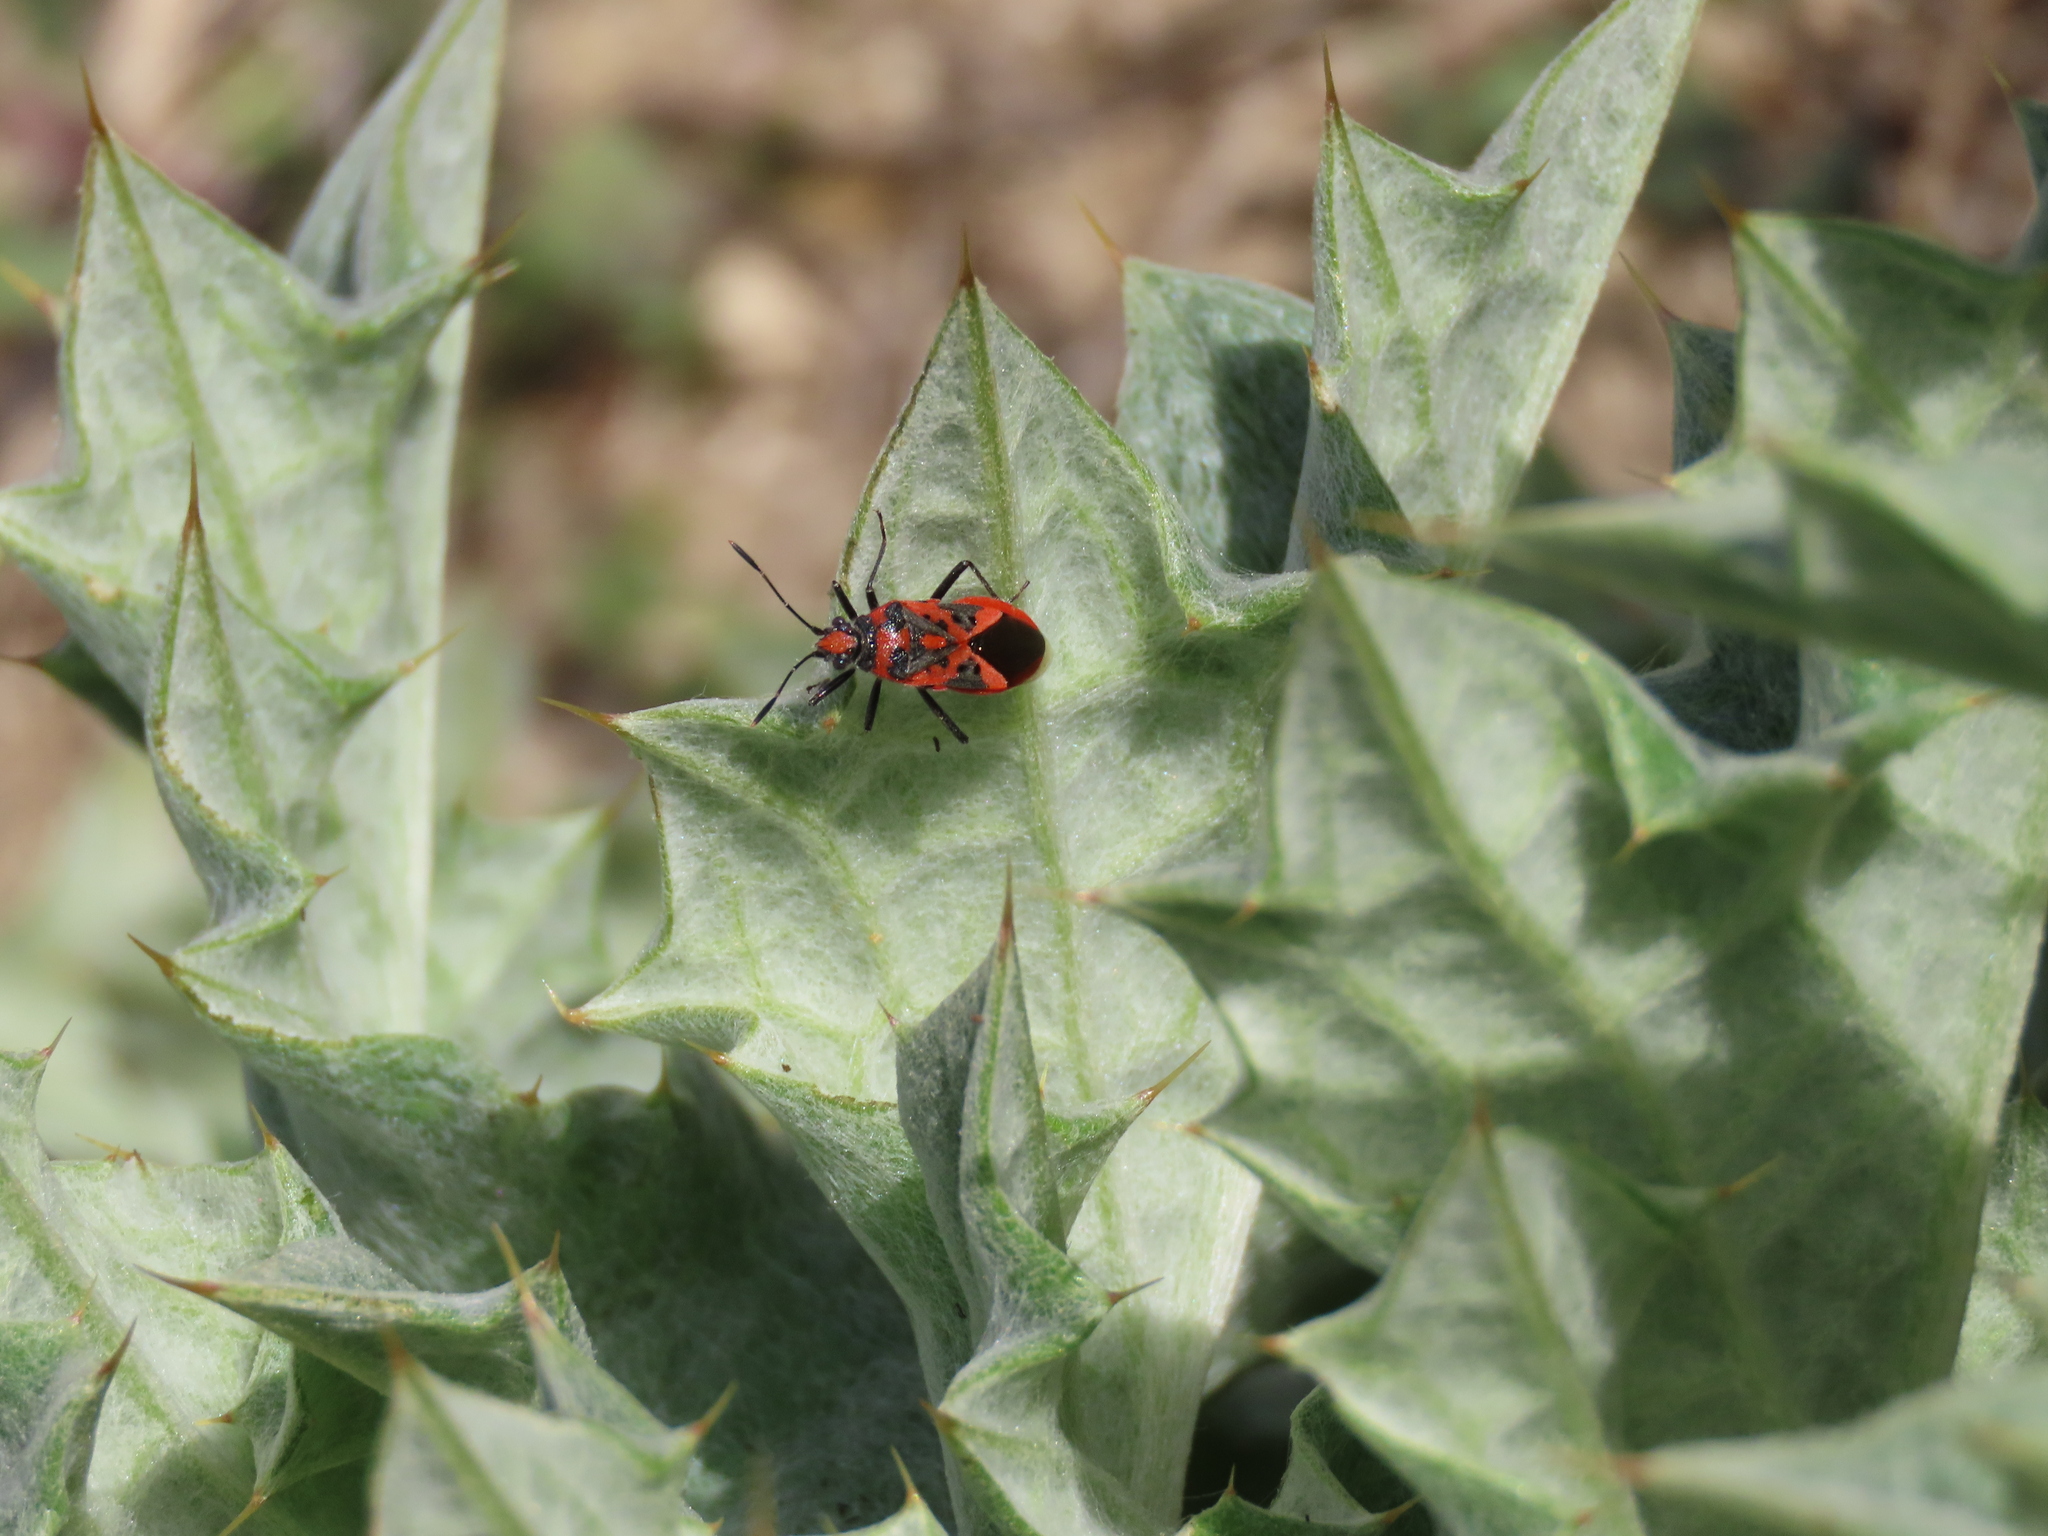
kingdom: Animalia
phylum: Arthropoda
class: Insecta
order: Hemiptera
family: Rhopalidae
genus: Corizus
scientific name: Corizus hyoscyami
